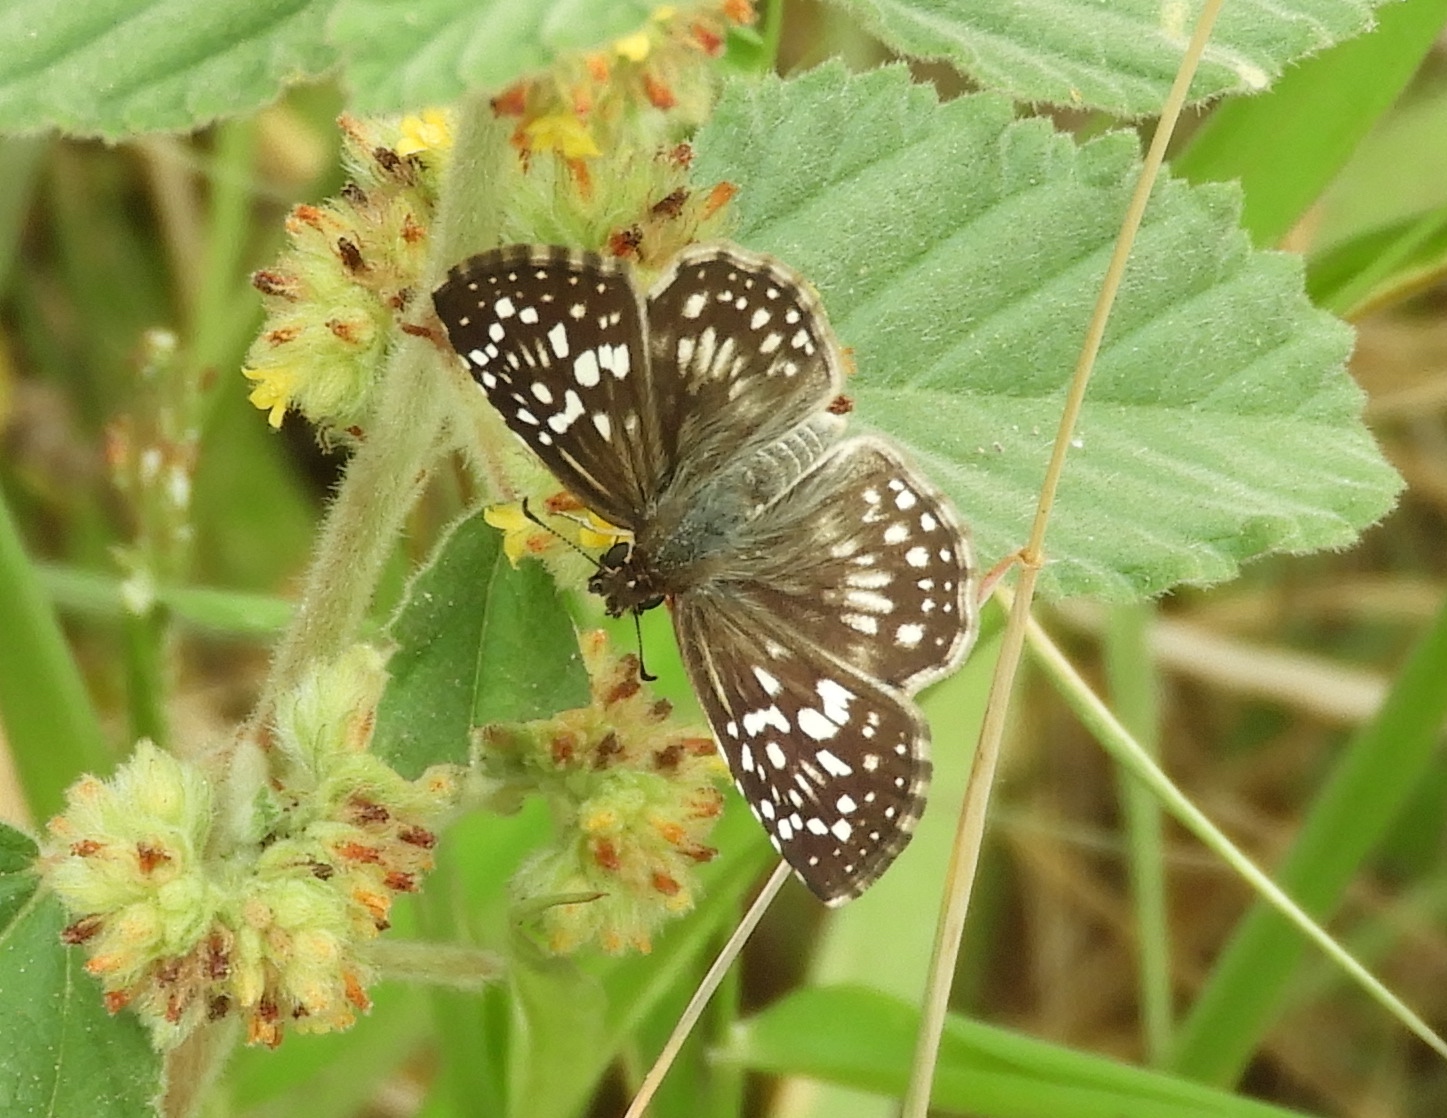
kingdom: Animalia
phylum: Arthropoda
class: Insecta
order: Lepidoptera
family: Hesperiidae
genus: Pyrgus
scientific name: Pyrgus oileus
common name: Tropical checkered-skipper
